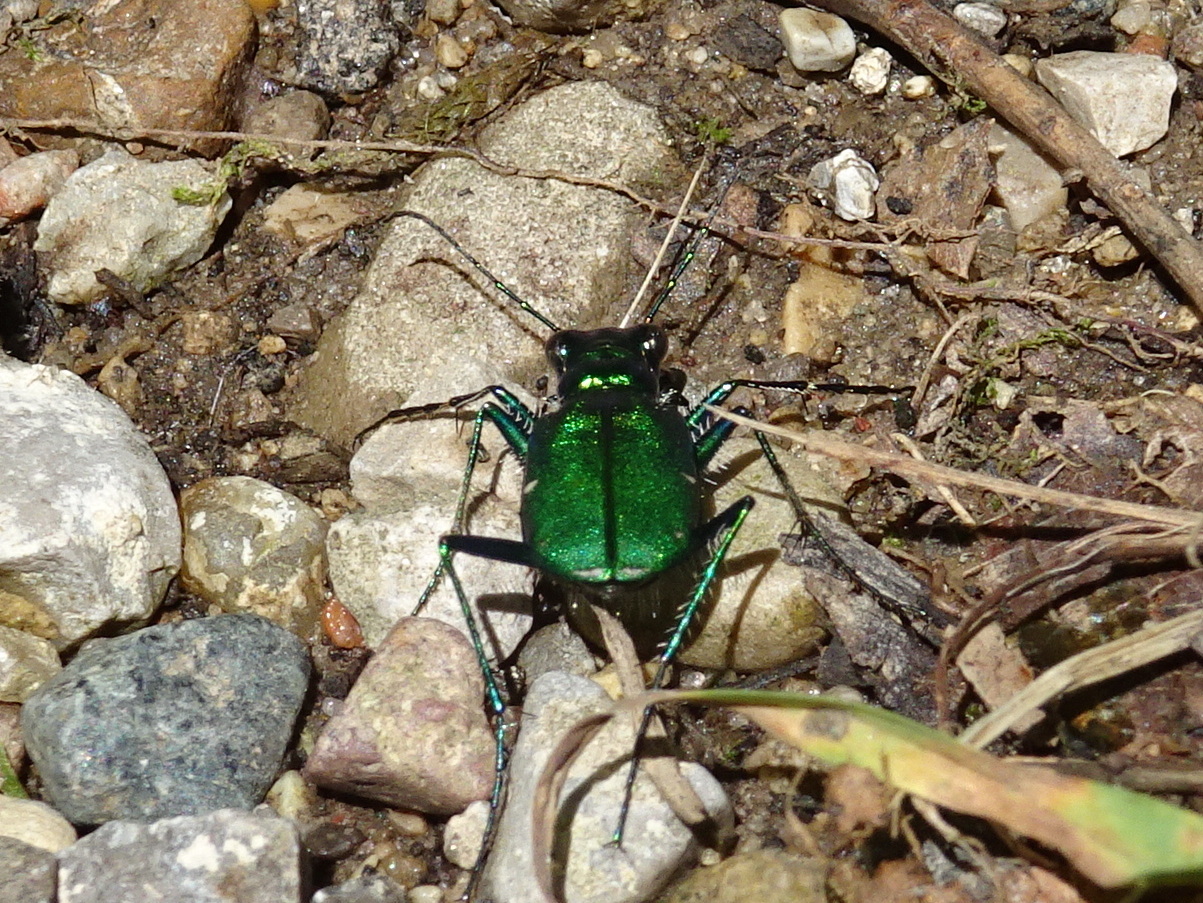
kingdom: Animalia
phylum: Arthropoda
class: Insecta
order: Coleoptera
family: Carabidae
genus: Cicindela
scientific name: Cicindela sexguttata
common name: Six-spotted tiger beetle
